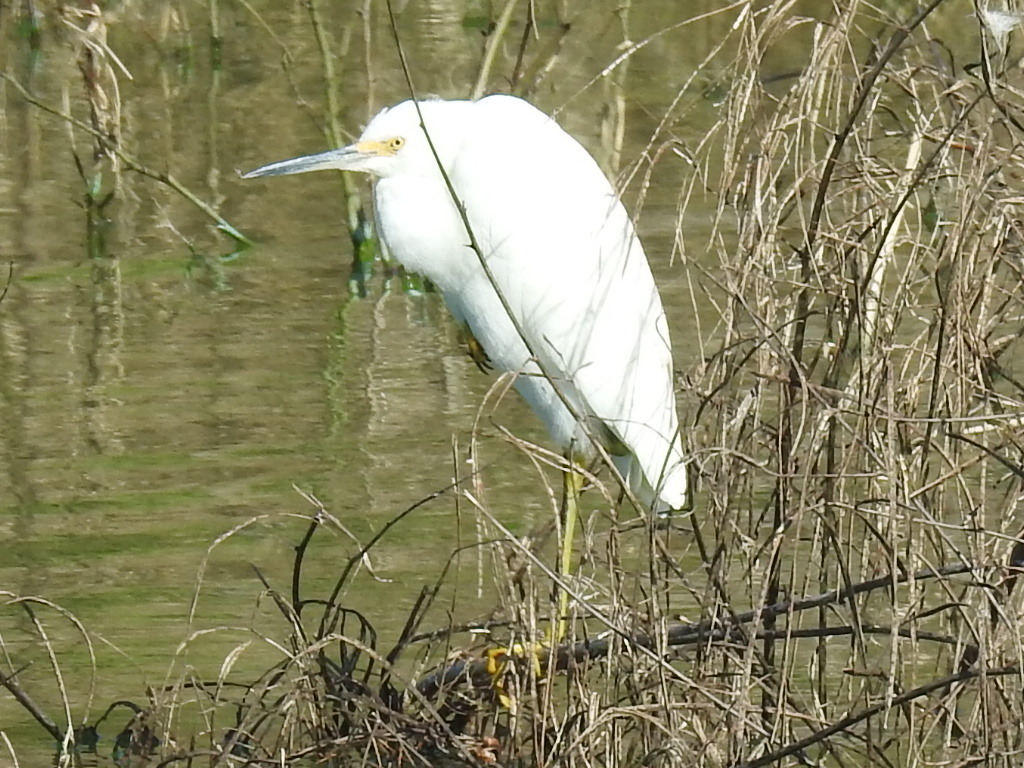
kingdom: Animalia
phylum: Chordata
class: Aves
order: Pelecaniformes
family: Ardeidae
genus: Egretta
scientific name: Egretta thula
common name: Snowy egret
